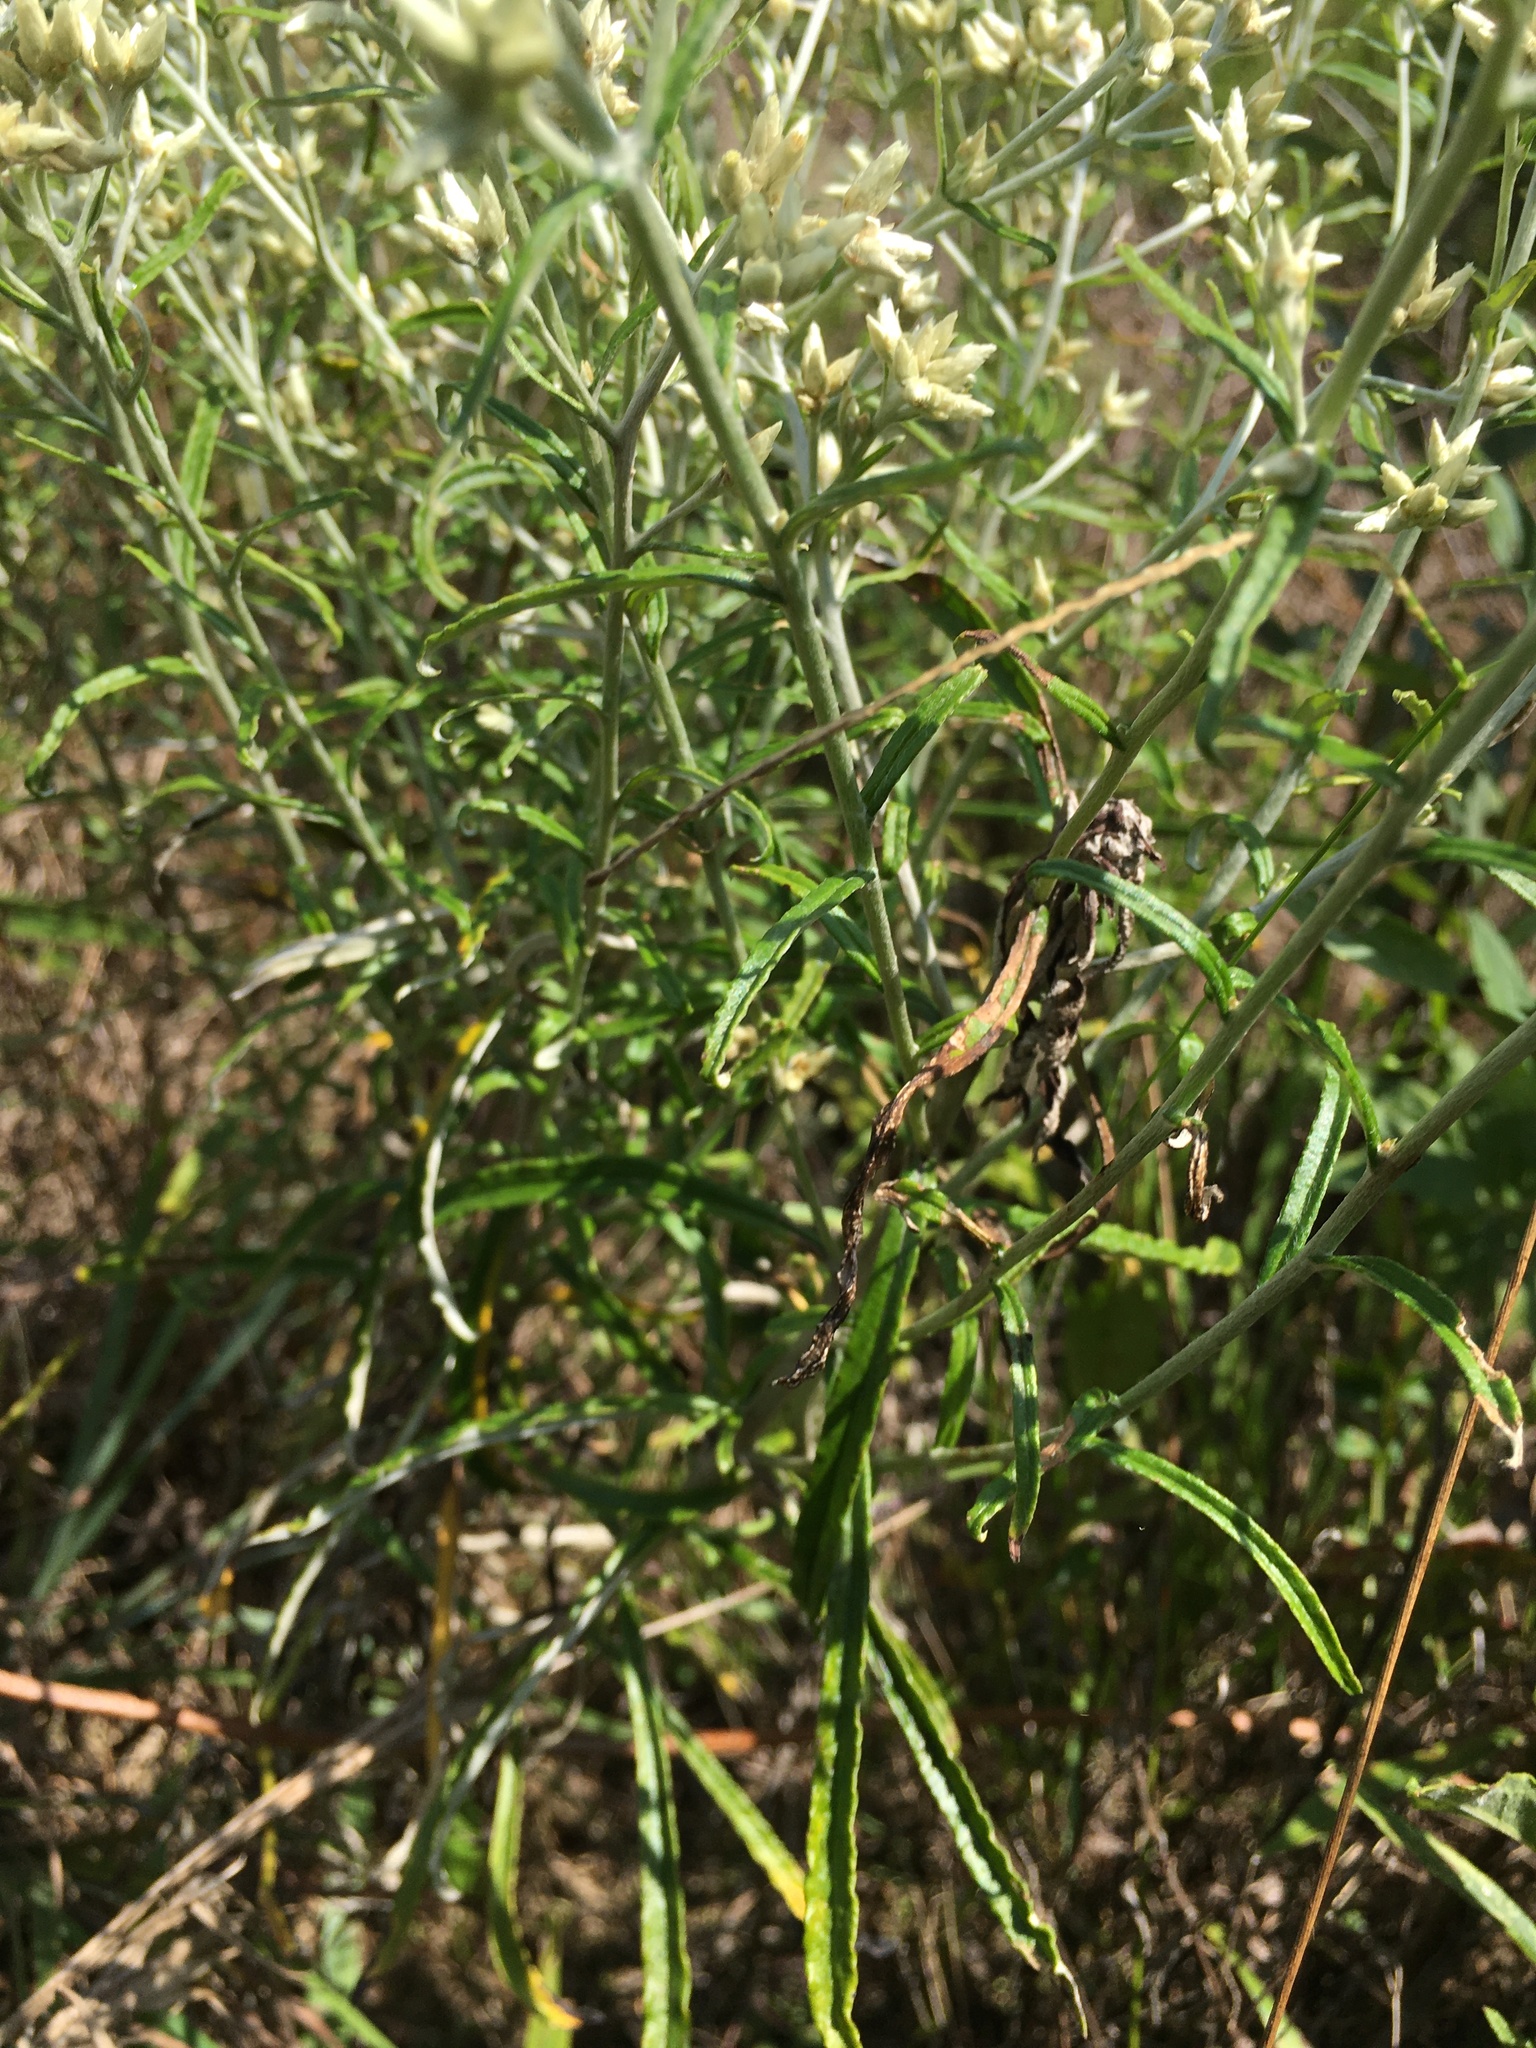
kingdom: Plantae
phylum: Tracheophyta
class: Magnoliopsida
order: Asterales
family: Asteraceae
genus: Pseudognaphalium
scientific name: Pseudognaphalium obtusifolium
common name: Eastern rabbit-tobacco
